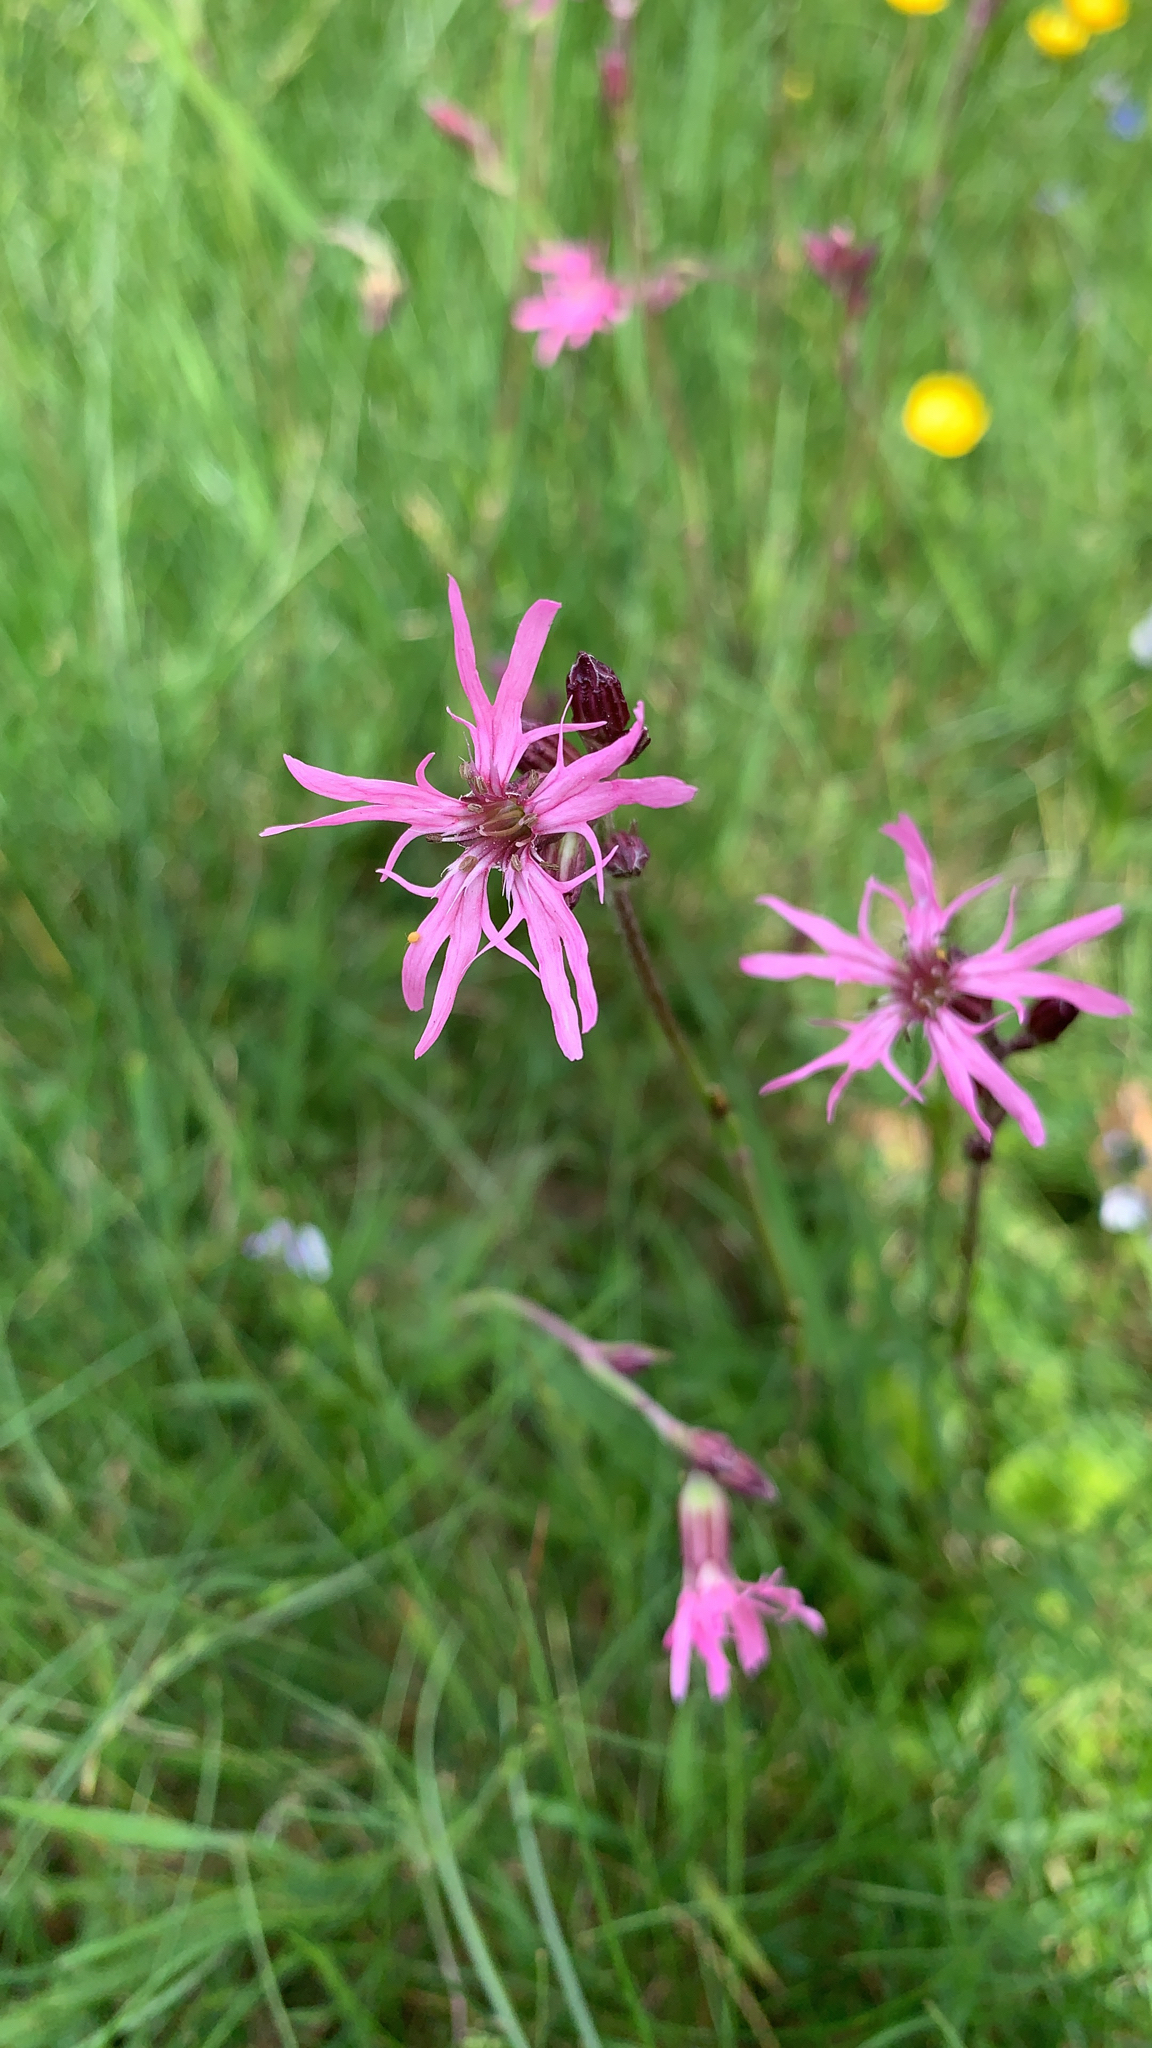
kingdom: Plantae
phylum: Tracheophyta
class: Magnoliopsida
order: Caryophyllales
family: Caryophyllaceae
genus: Silene
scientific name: Silene flos-cuculi
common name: Ragged-robin
